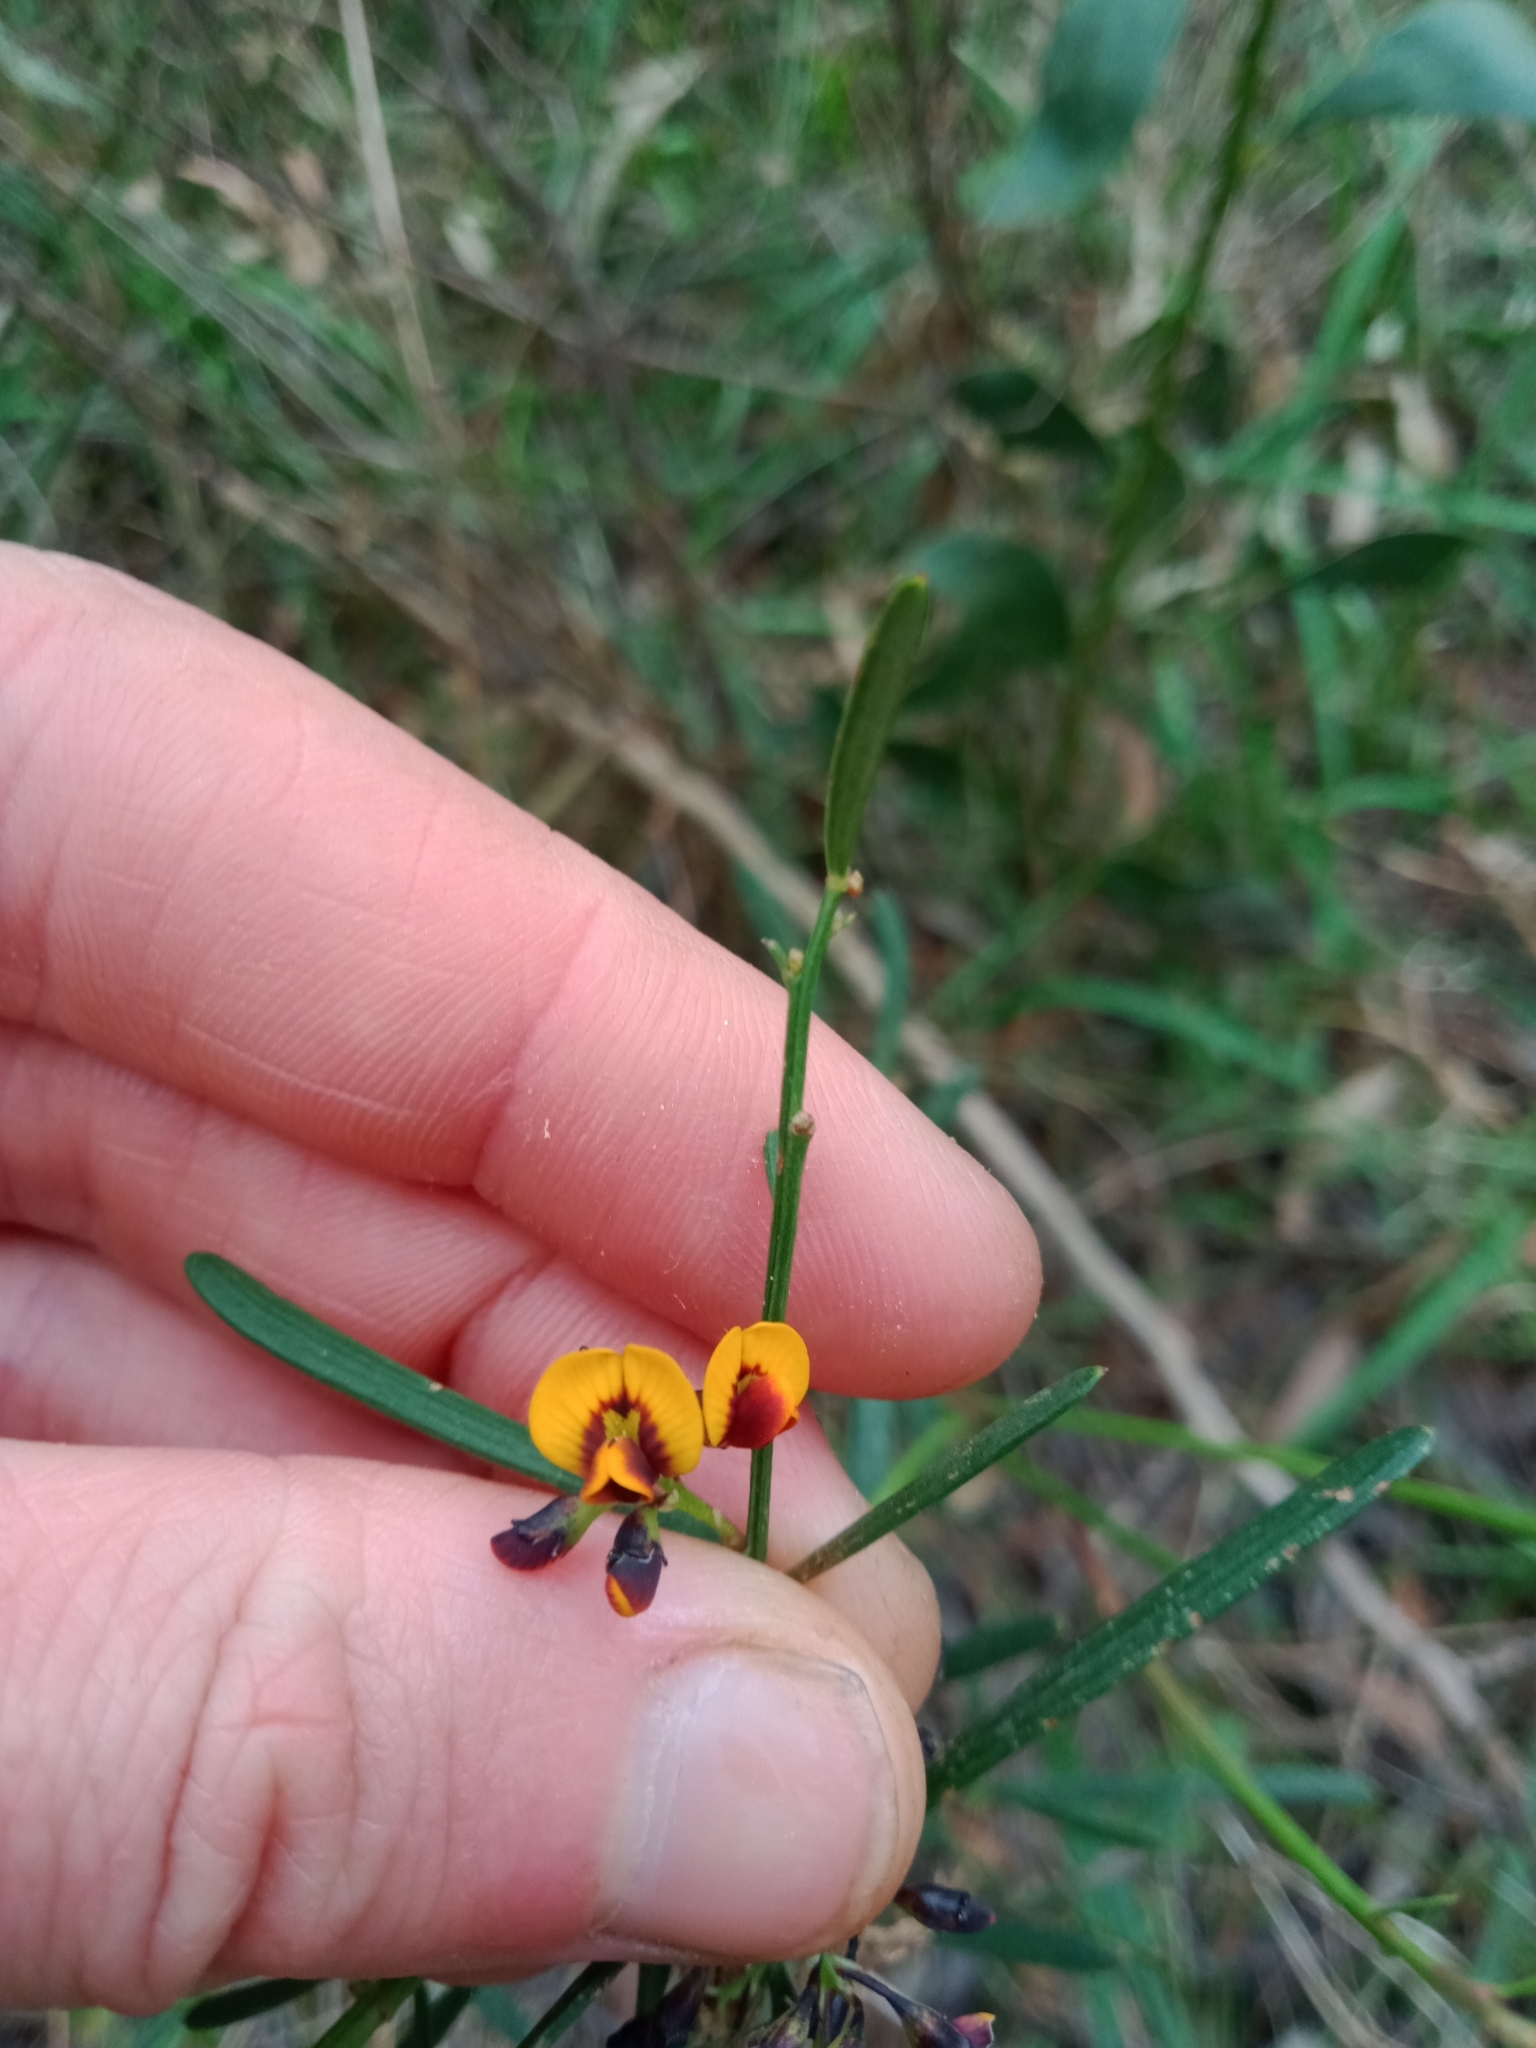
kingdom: Plantae
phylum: Tracheophyta
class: Magnoliopsida
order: Fabales
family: Fabaceae
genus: Daviesia
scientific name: Daviesia leptophylla
